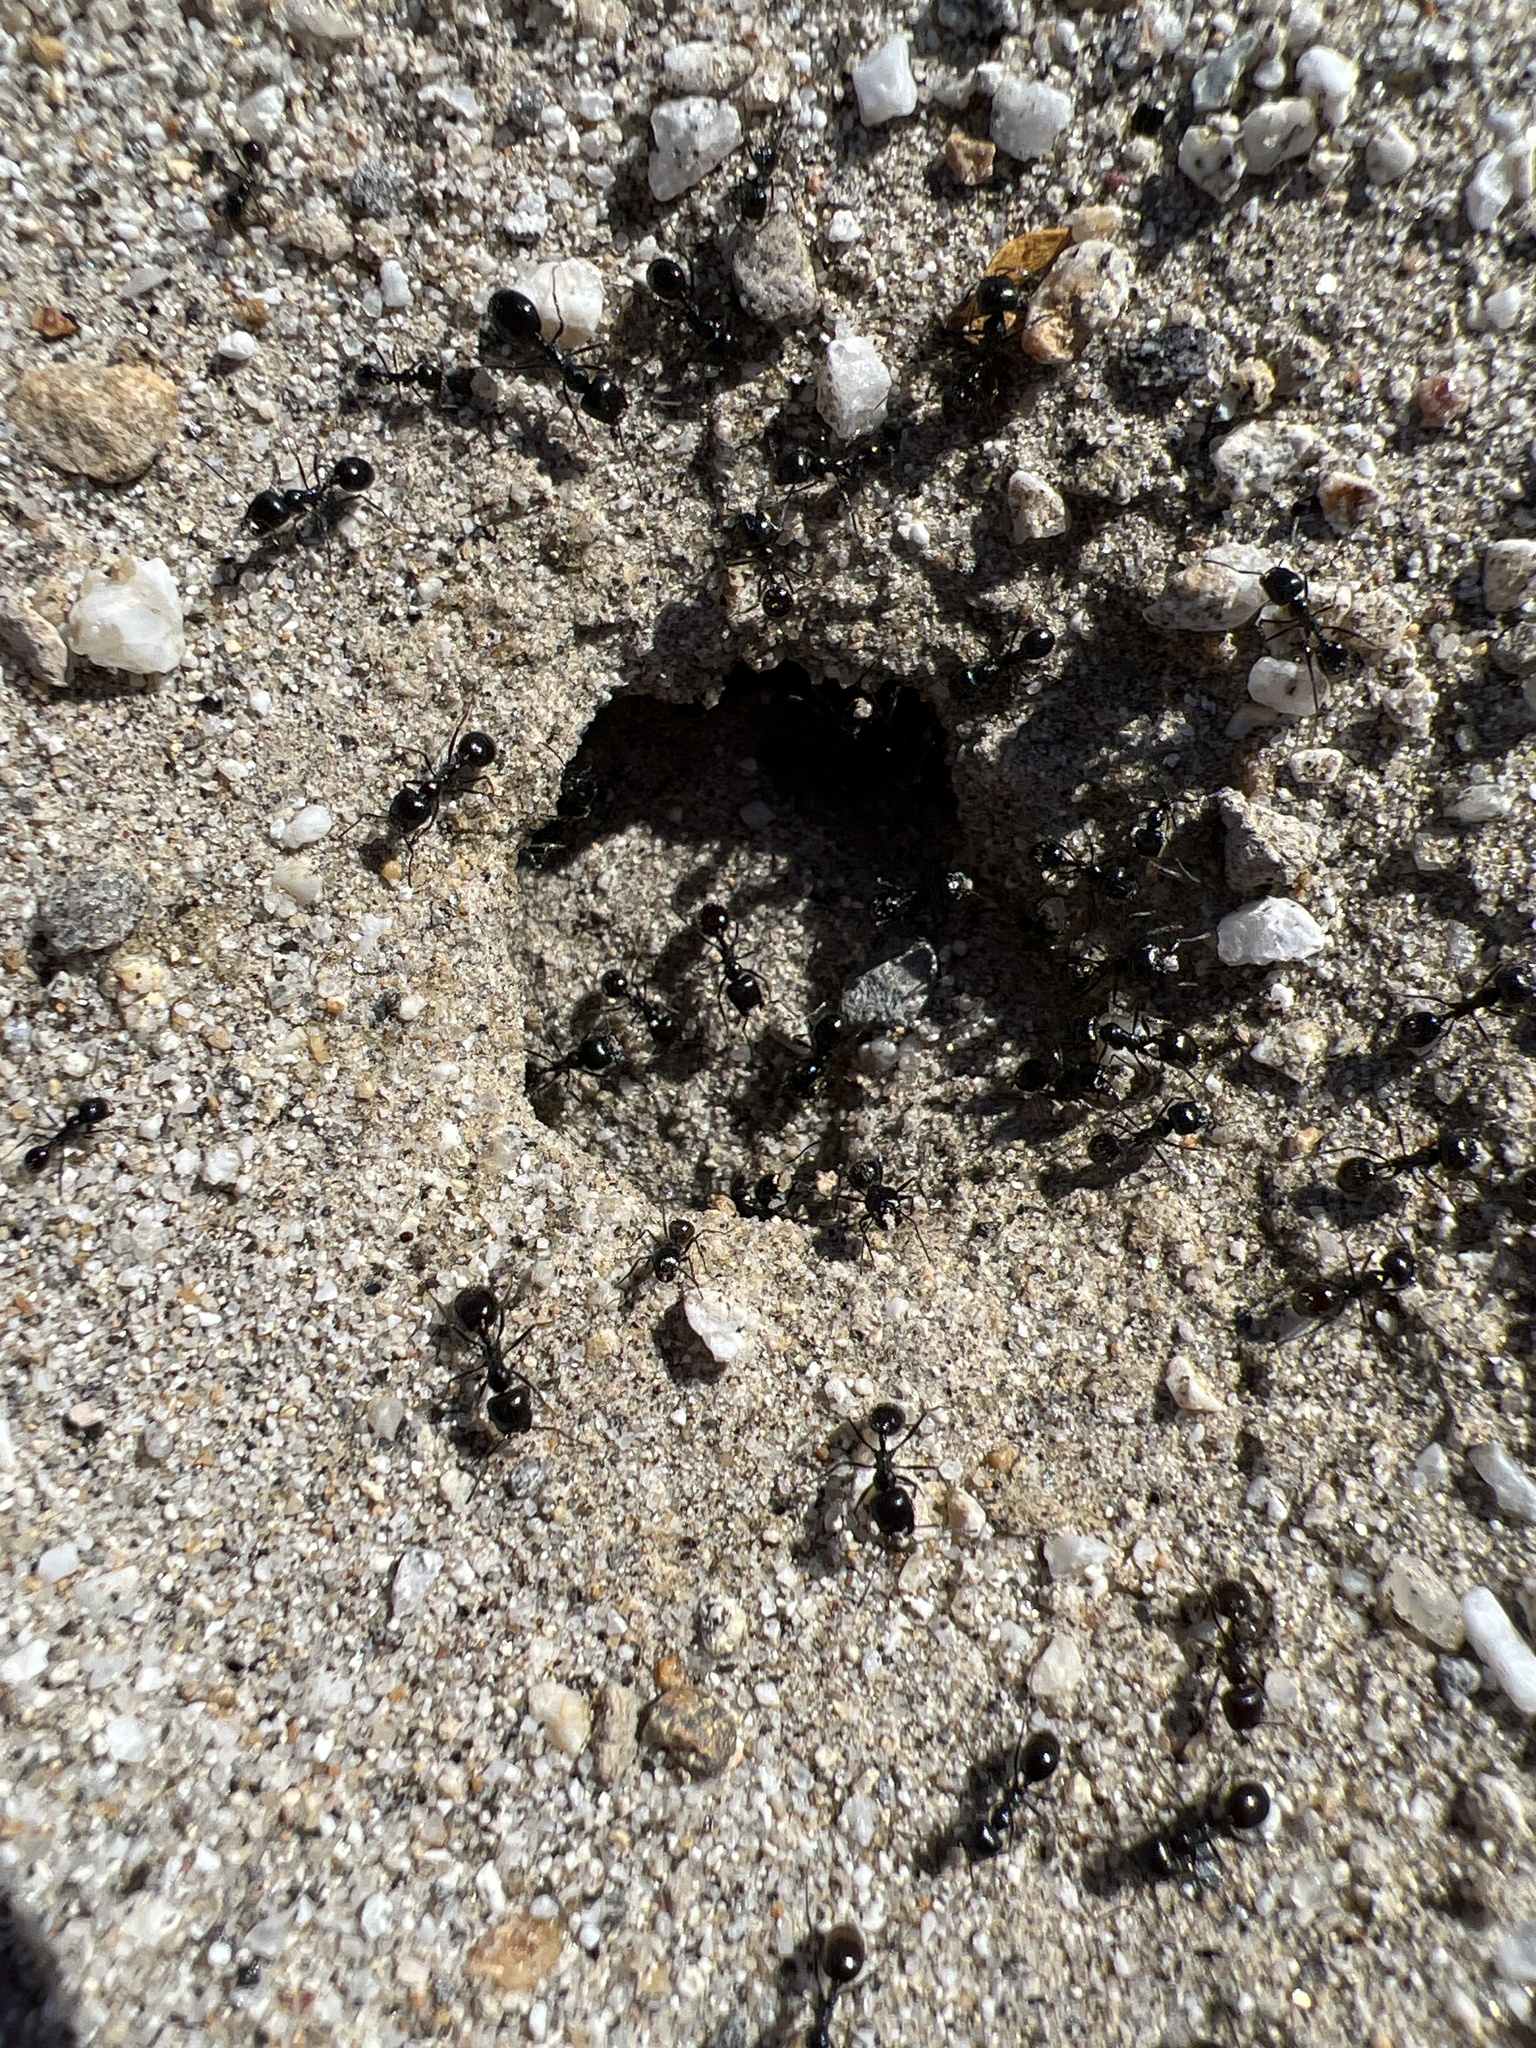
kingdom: Animalia
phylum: Arthropoda
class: Insecta
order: Hymenoptera
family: Formicidae
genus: Messor
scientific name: Messor pergandei
